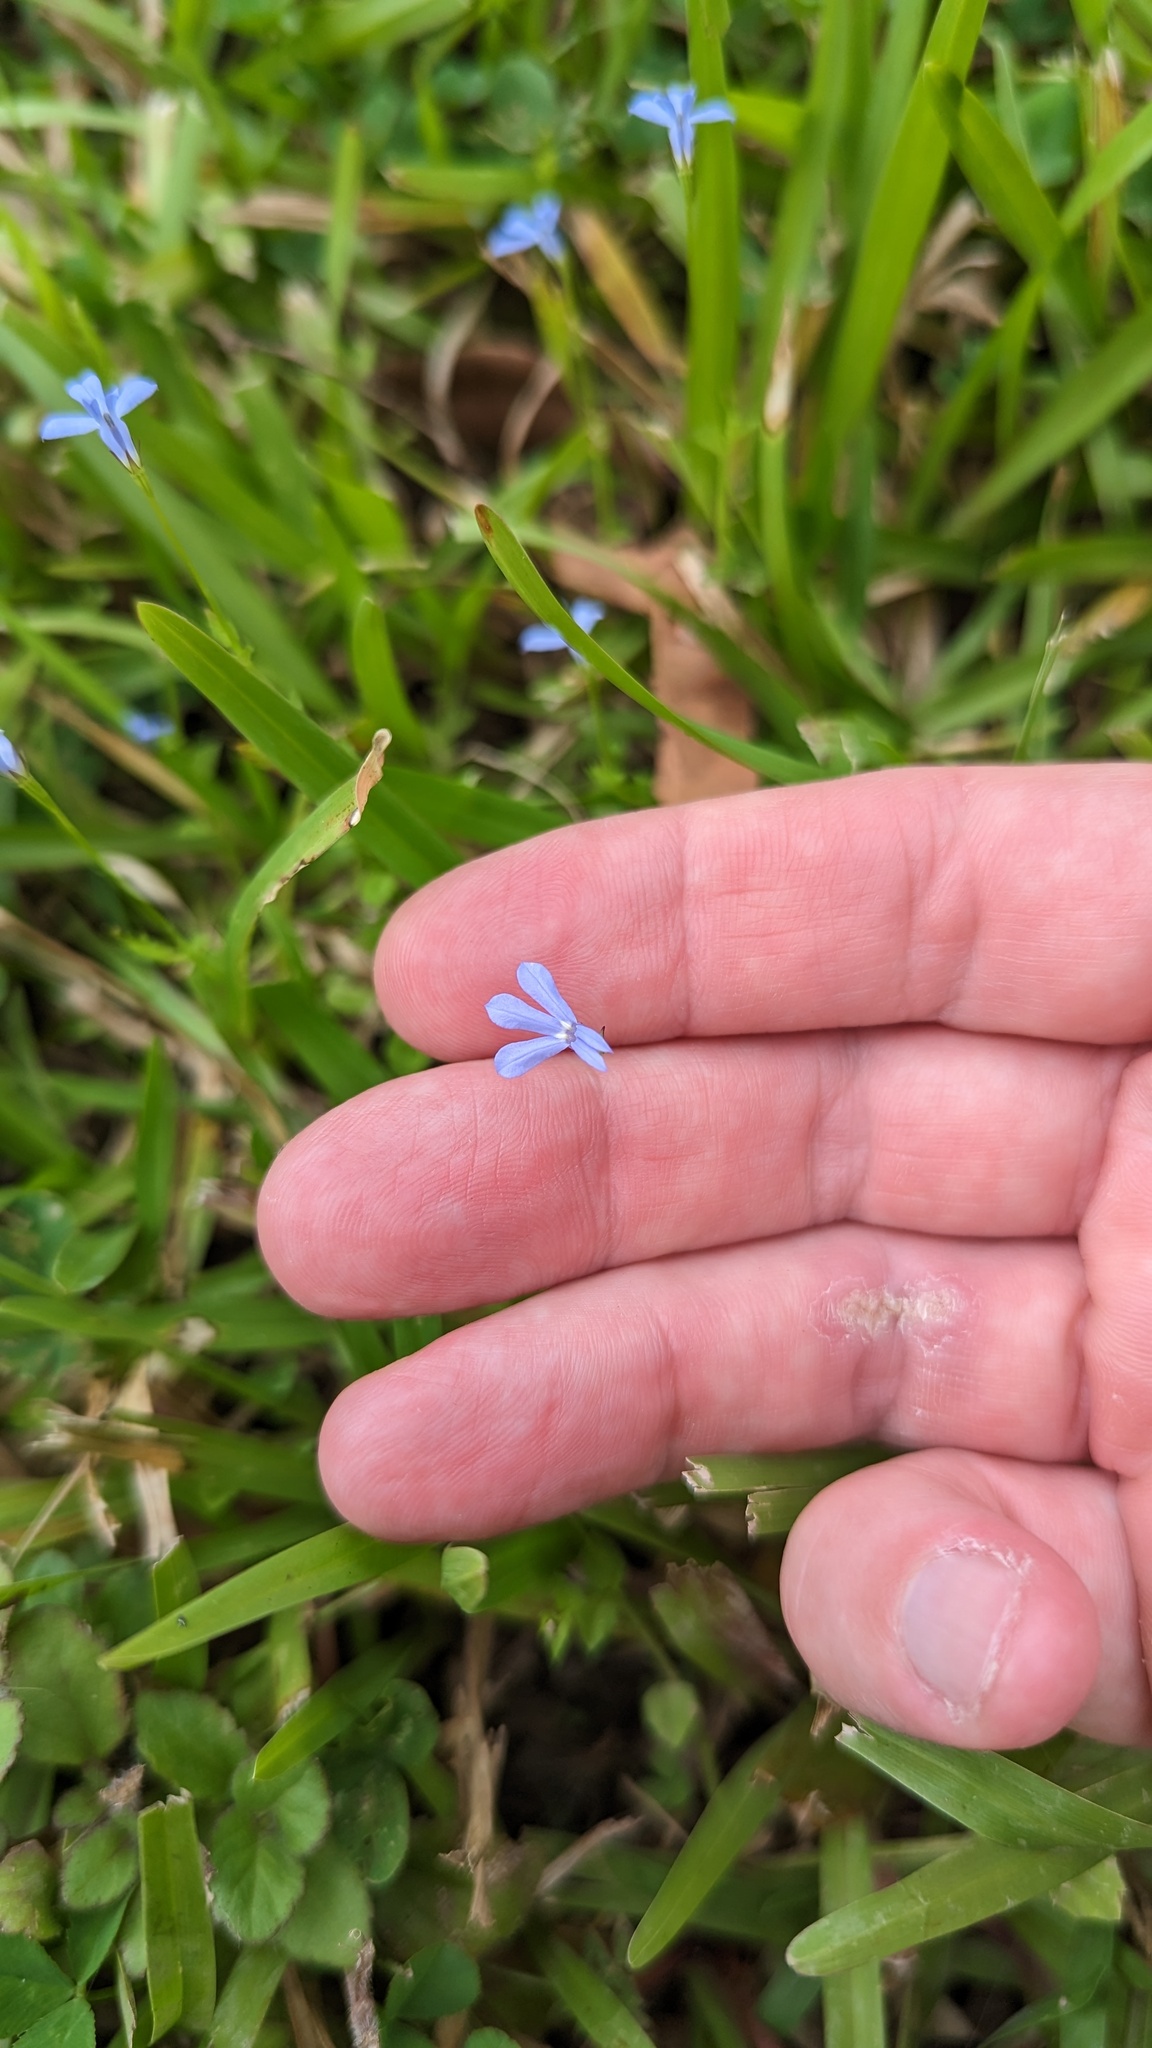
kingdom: Plantae
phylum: Tracheophyta
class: Magnoliopsida
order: Asterales
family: Campanulaceae
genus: Lobelia
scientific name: Lobelia quadrangularis
